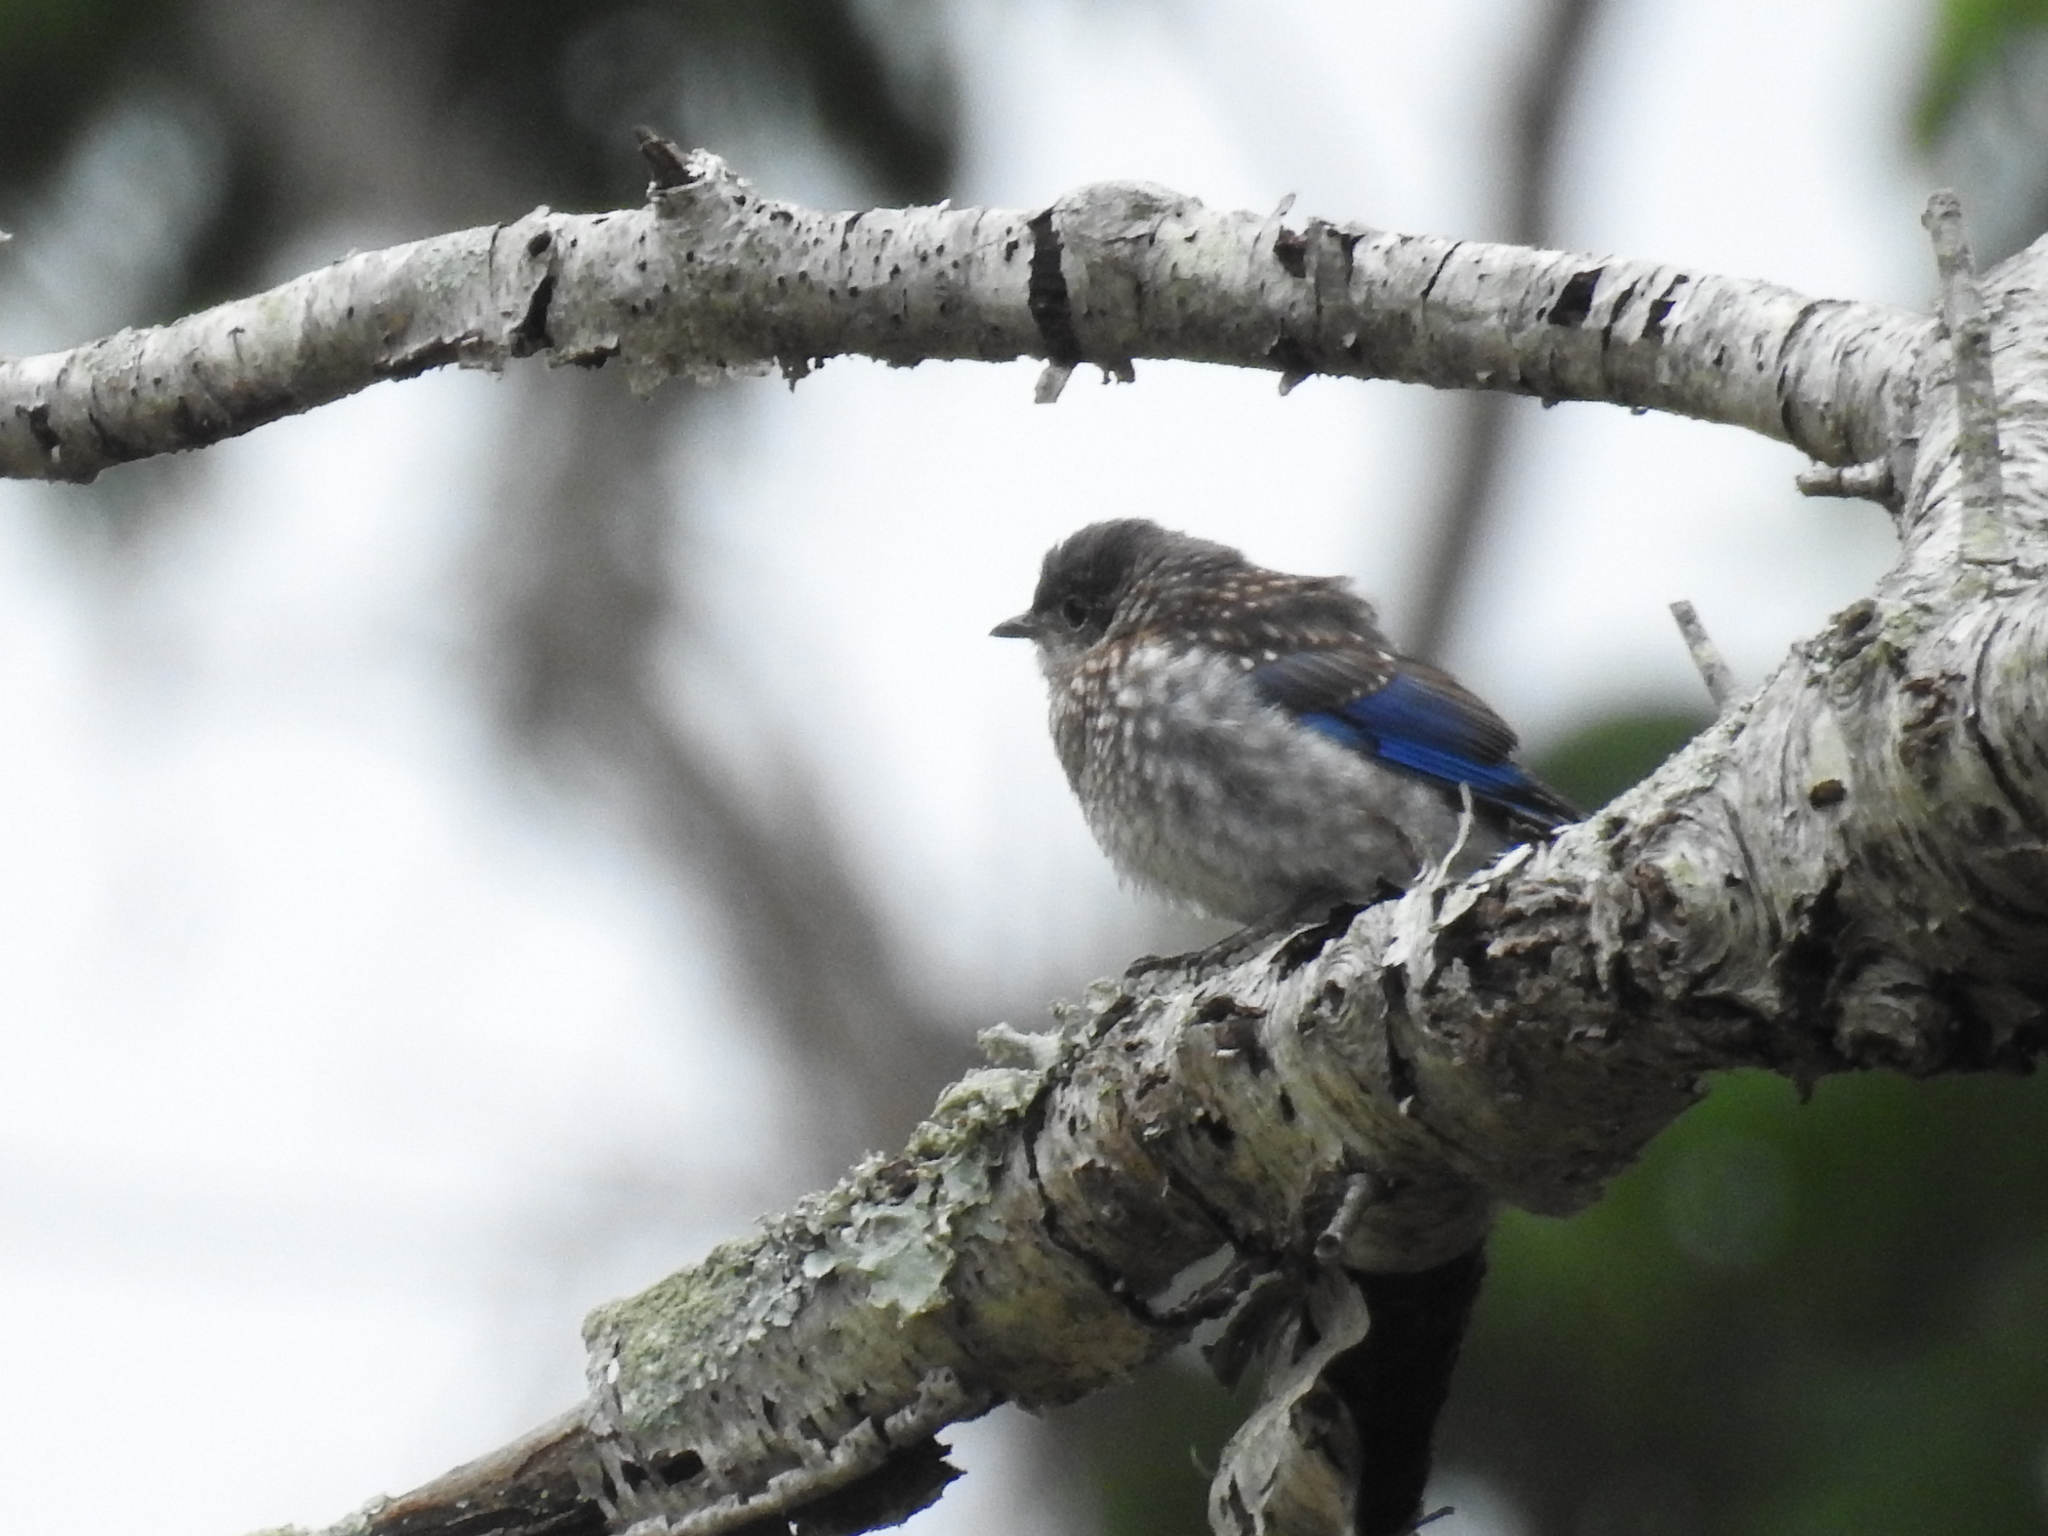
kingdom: Animalia
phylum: Chordata
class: Aves
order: Passeriformes
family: Turdidae
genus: Sialia
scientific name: Sialia sialis
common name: Eastern bluebird
